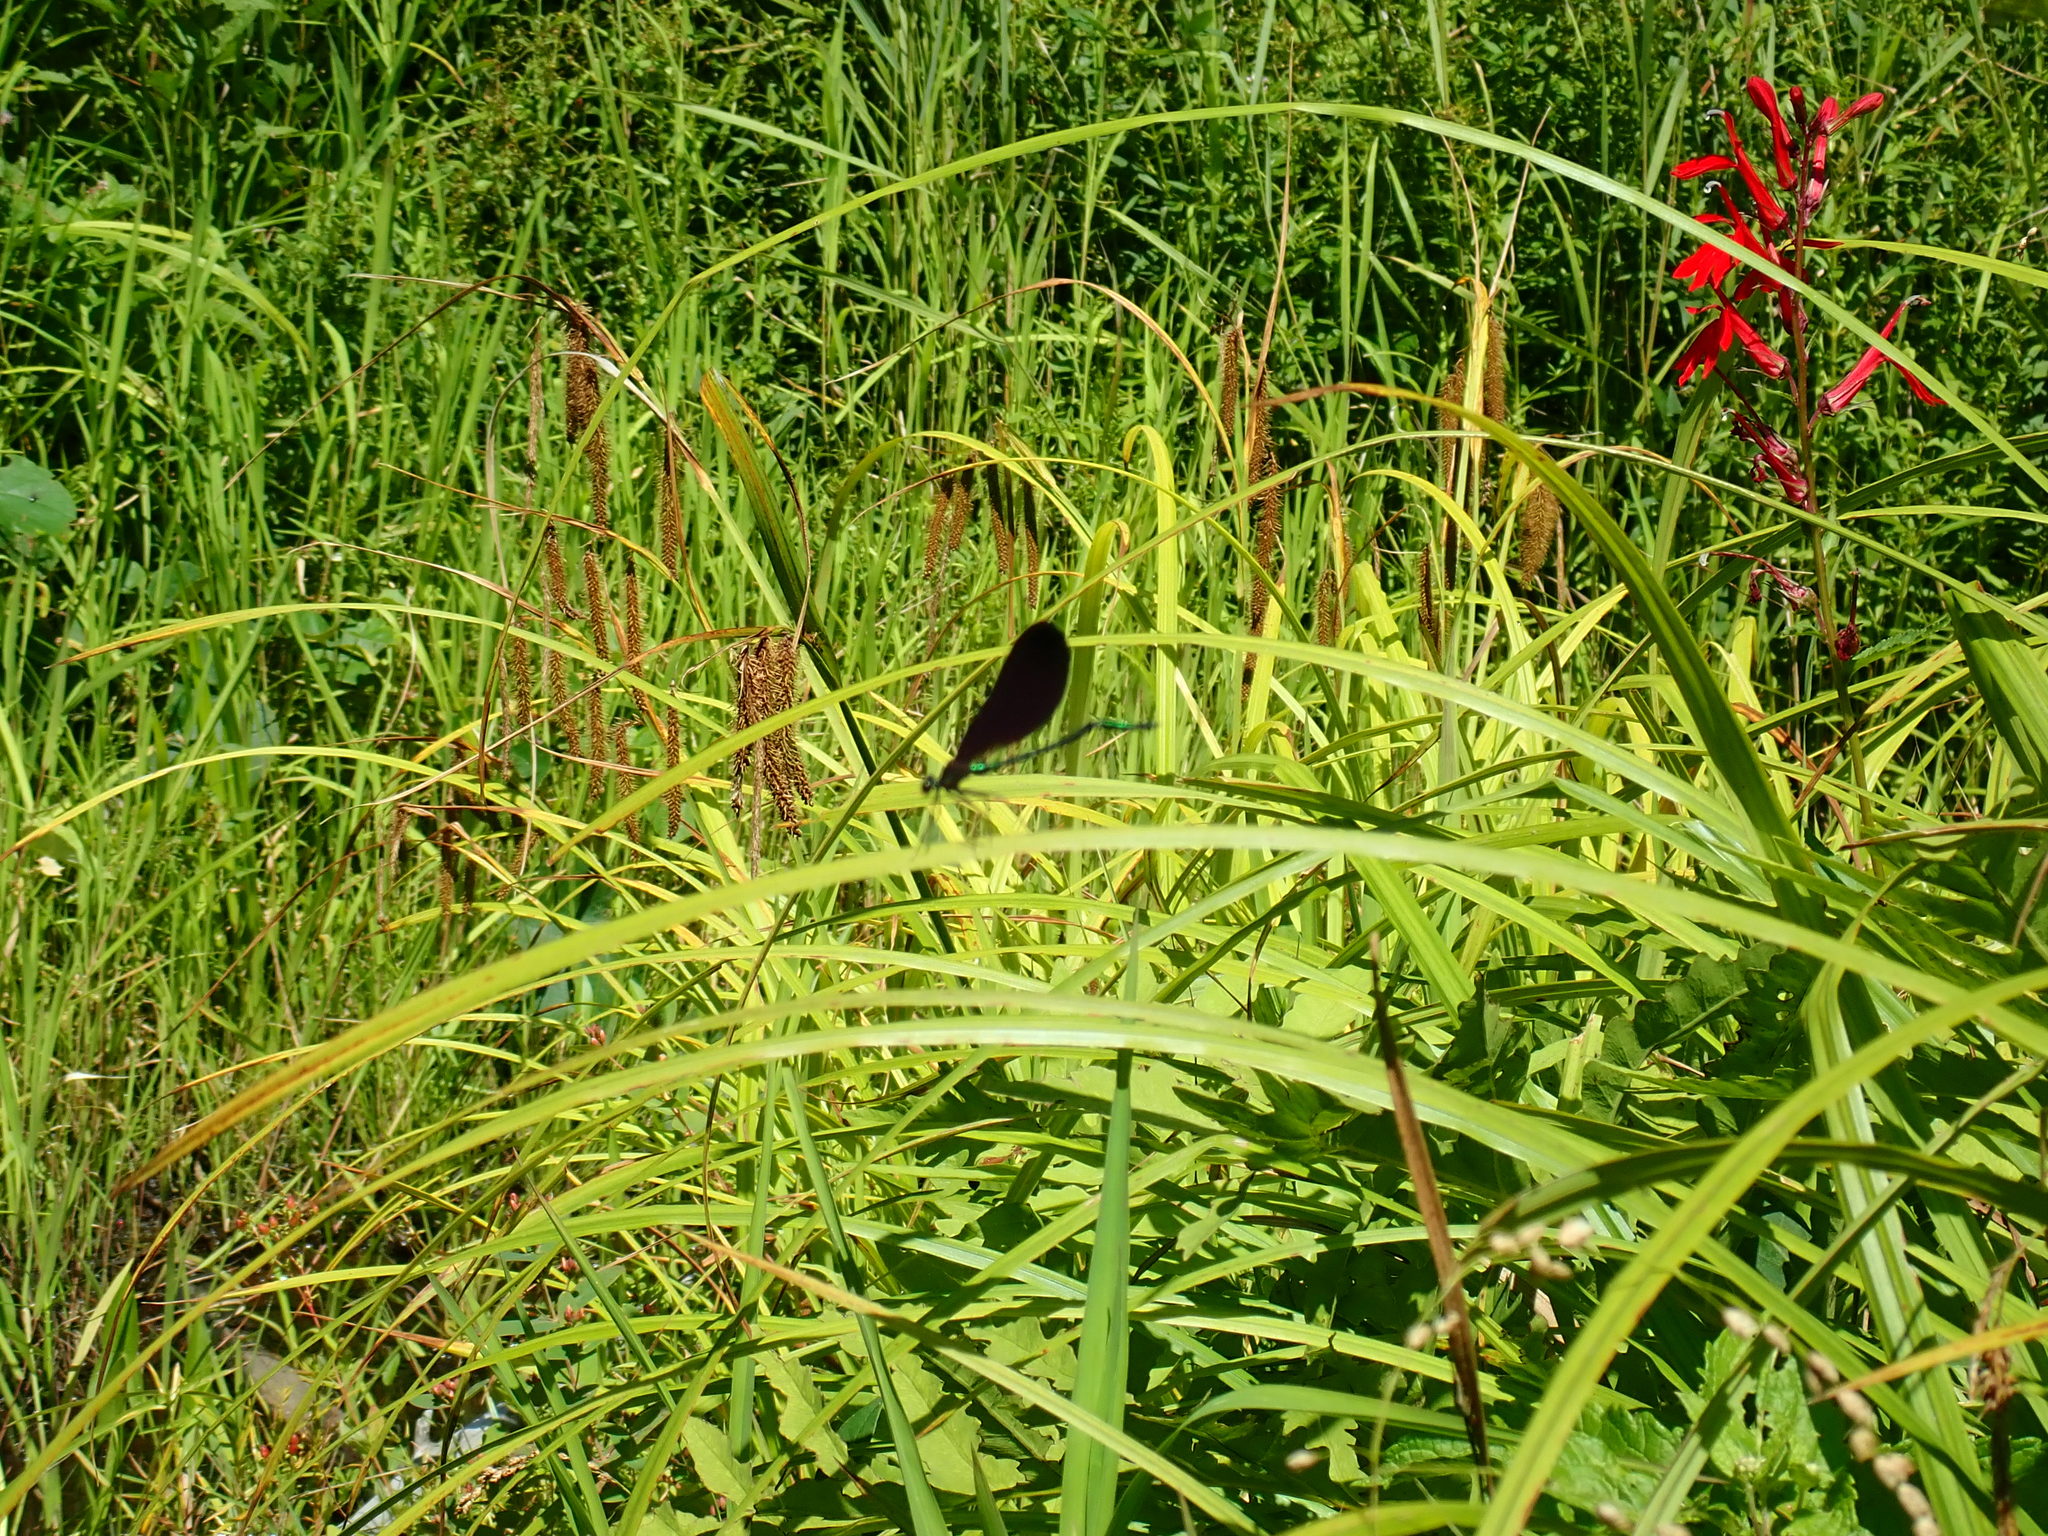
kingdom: Animalia
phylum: Arthropoda
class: Insecta
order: Odonata
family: Calopterygidae
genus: Calopteryx
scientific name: Calopteryx maculata
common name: Ebony jewelwing
